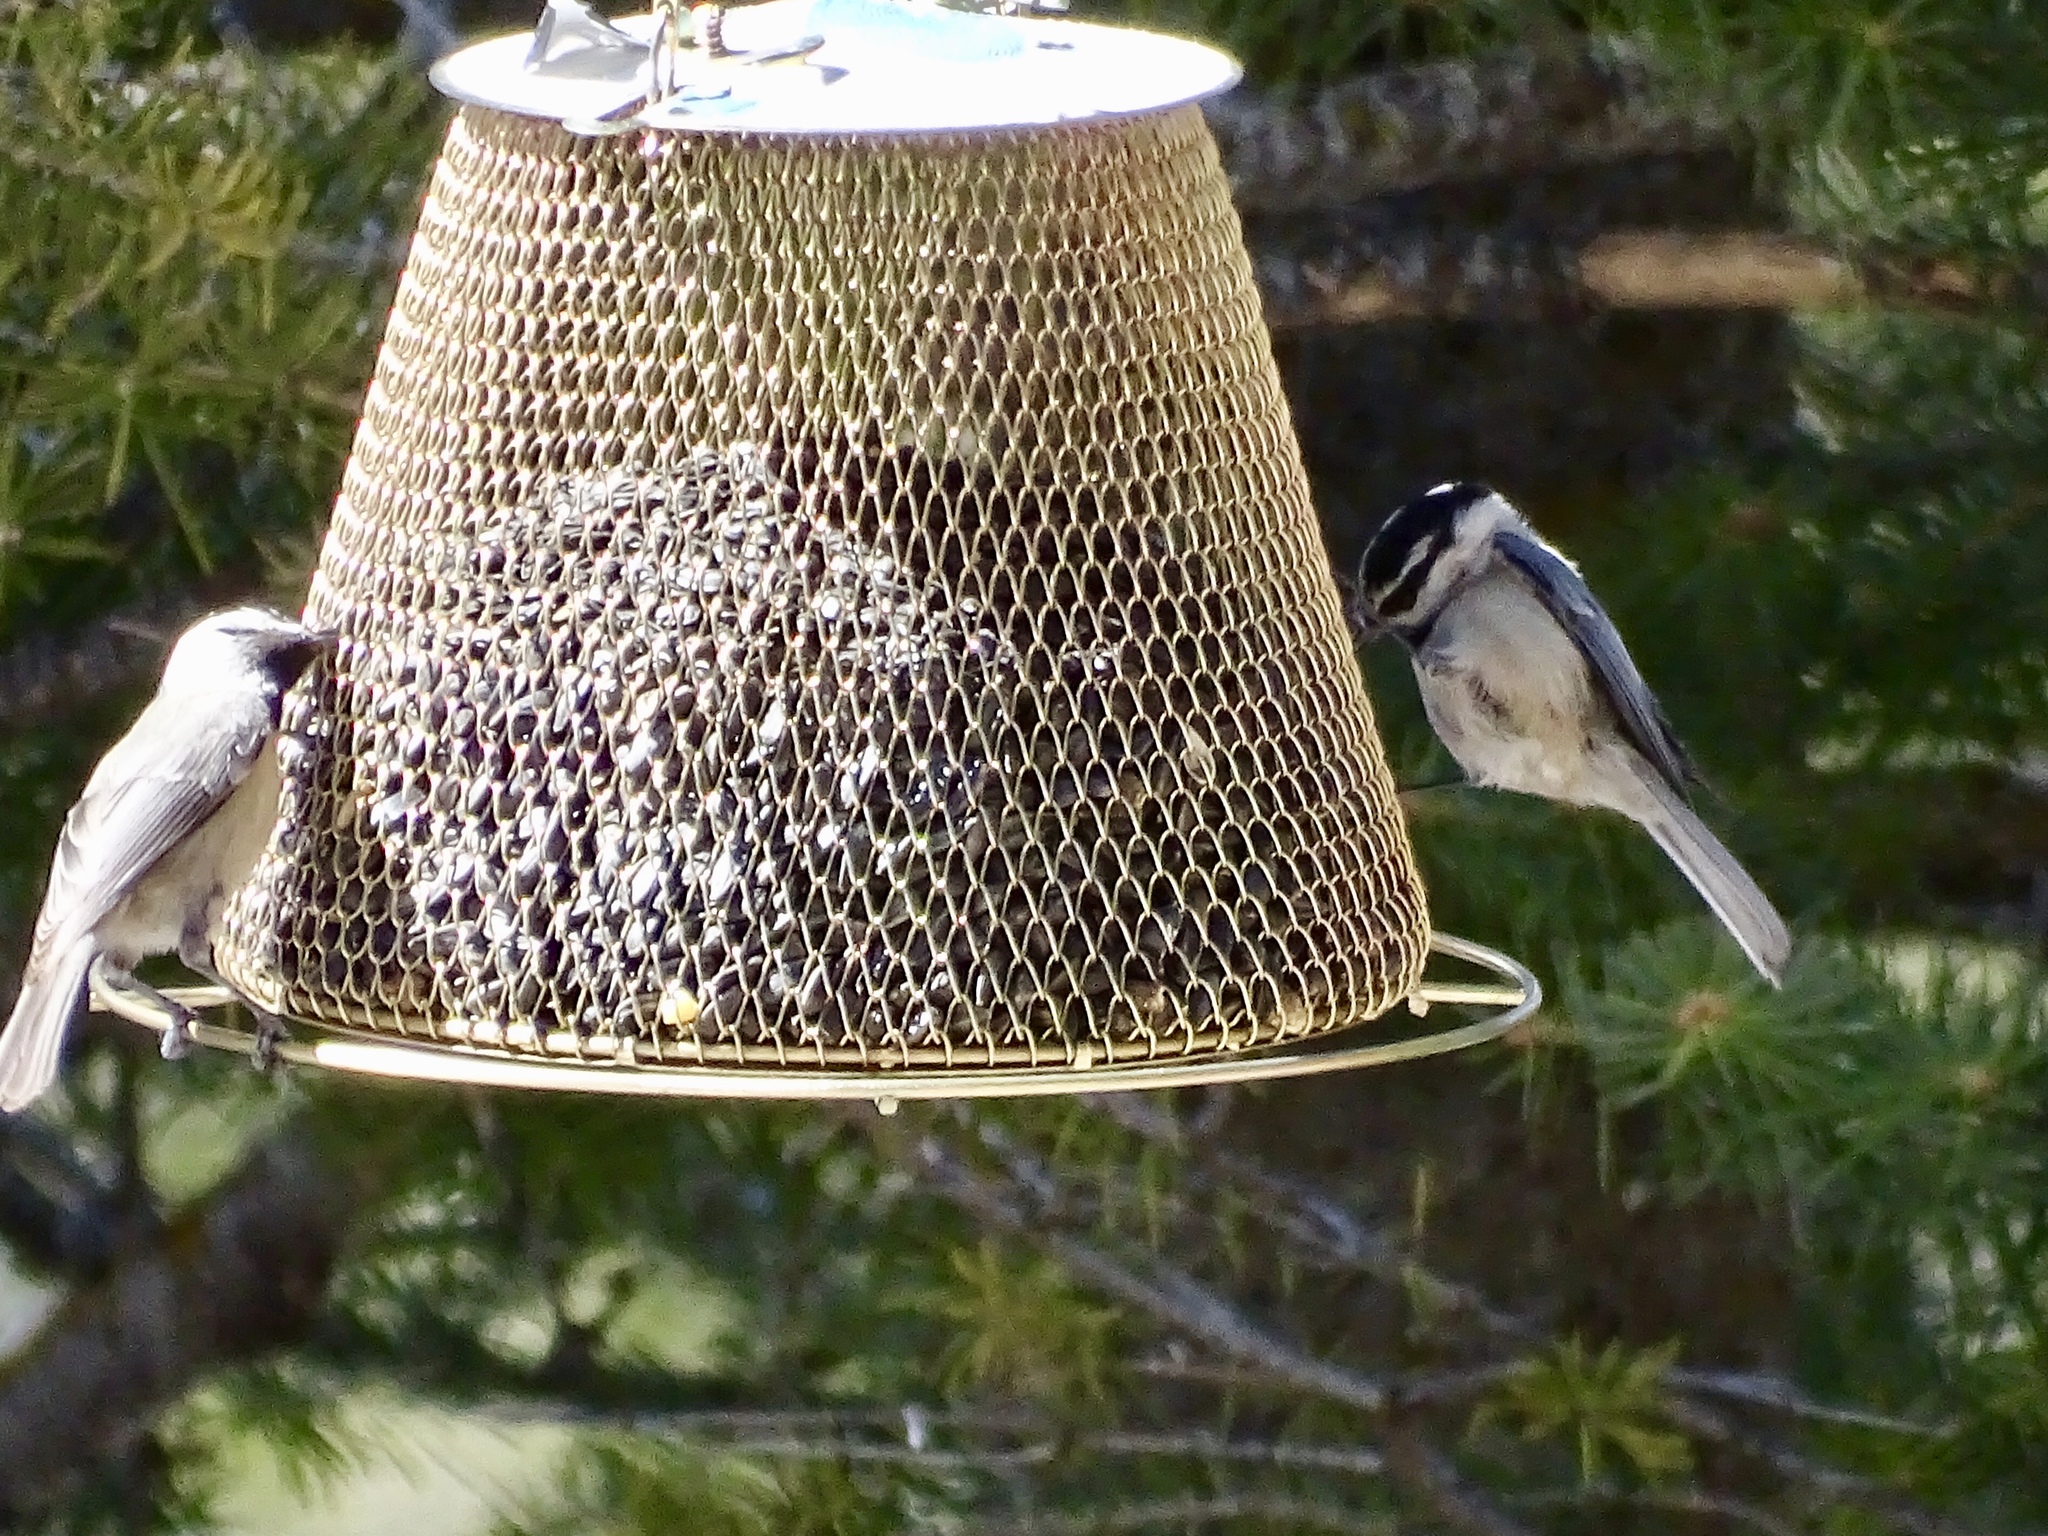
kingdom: Animalia
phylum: Chordata
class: Aves
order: Passeriformes
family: Paridae
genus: Poecile
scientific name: Poecile gambeli
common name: Mountain chickadee
